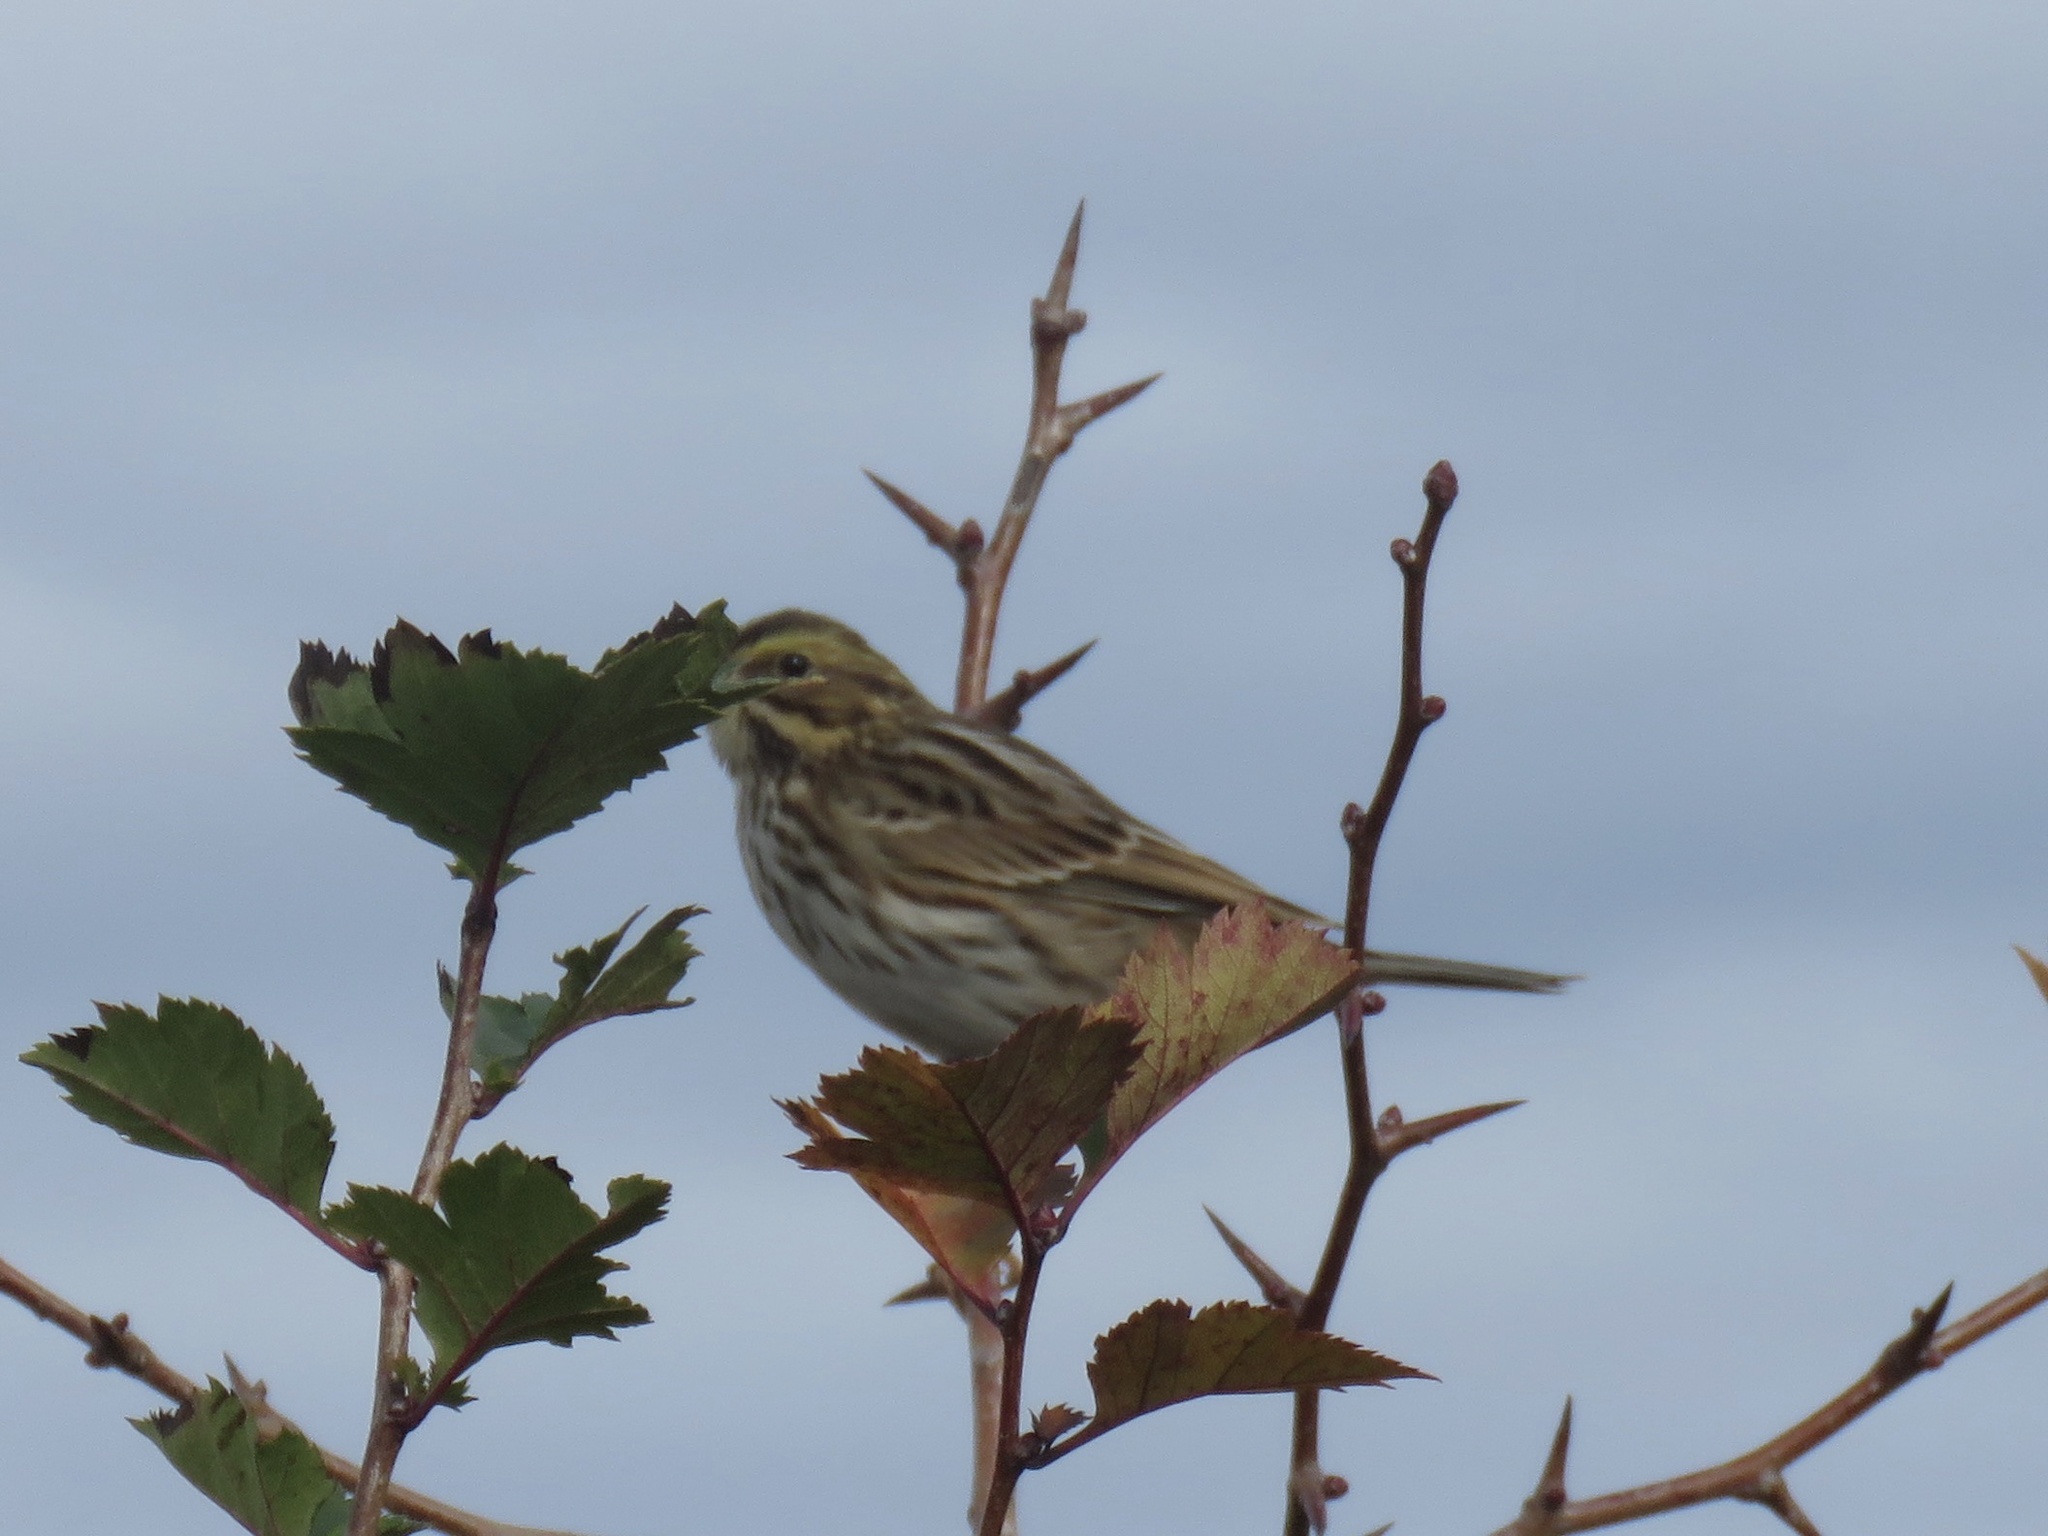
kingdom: Animalia
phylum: Chordata
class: Aves
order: Passeriformes
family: Passerellidae
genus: Passerculus
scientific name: Passerculus sandwichensis
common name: Savannah sparrow
